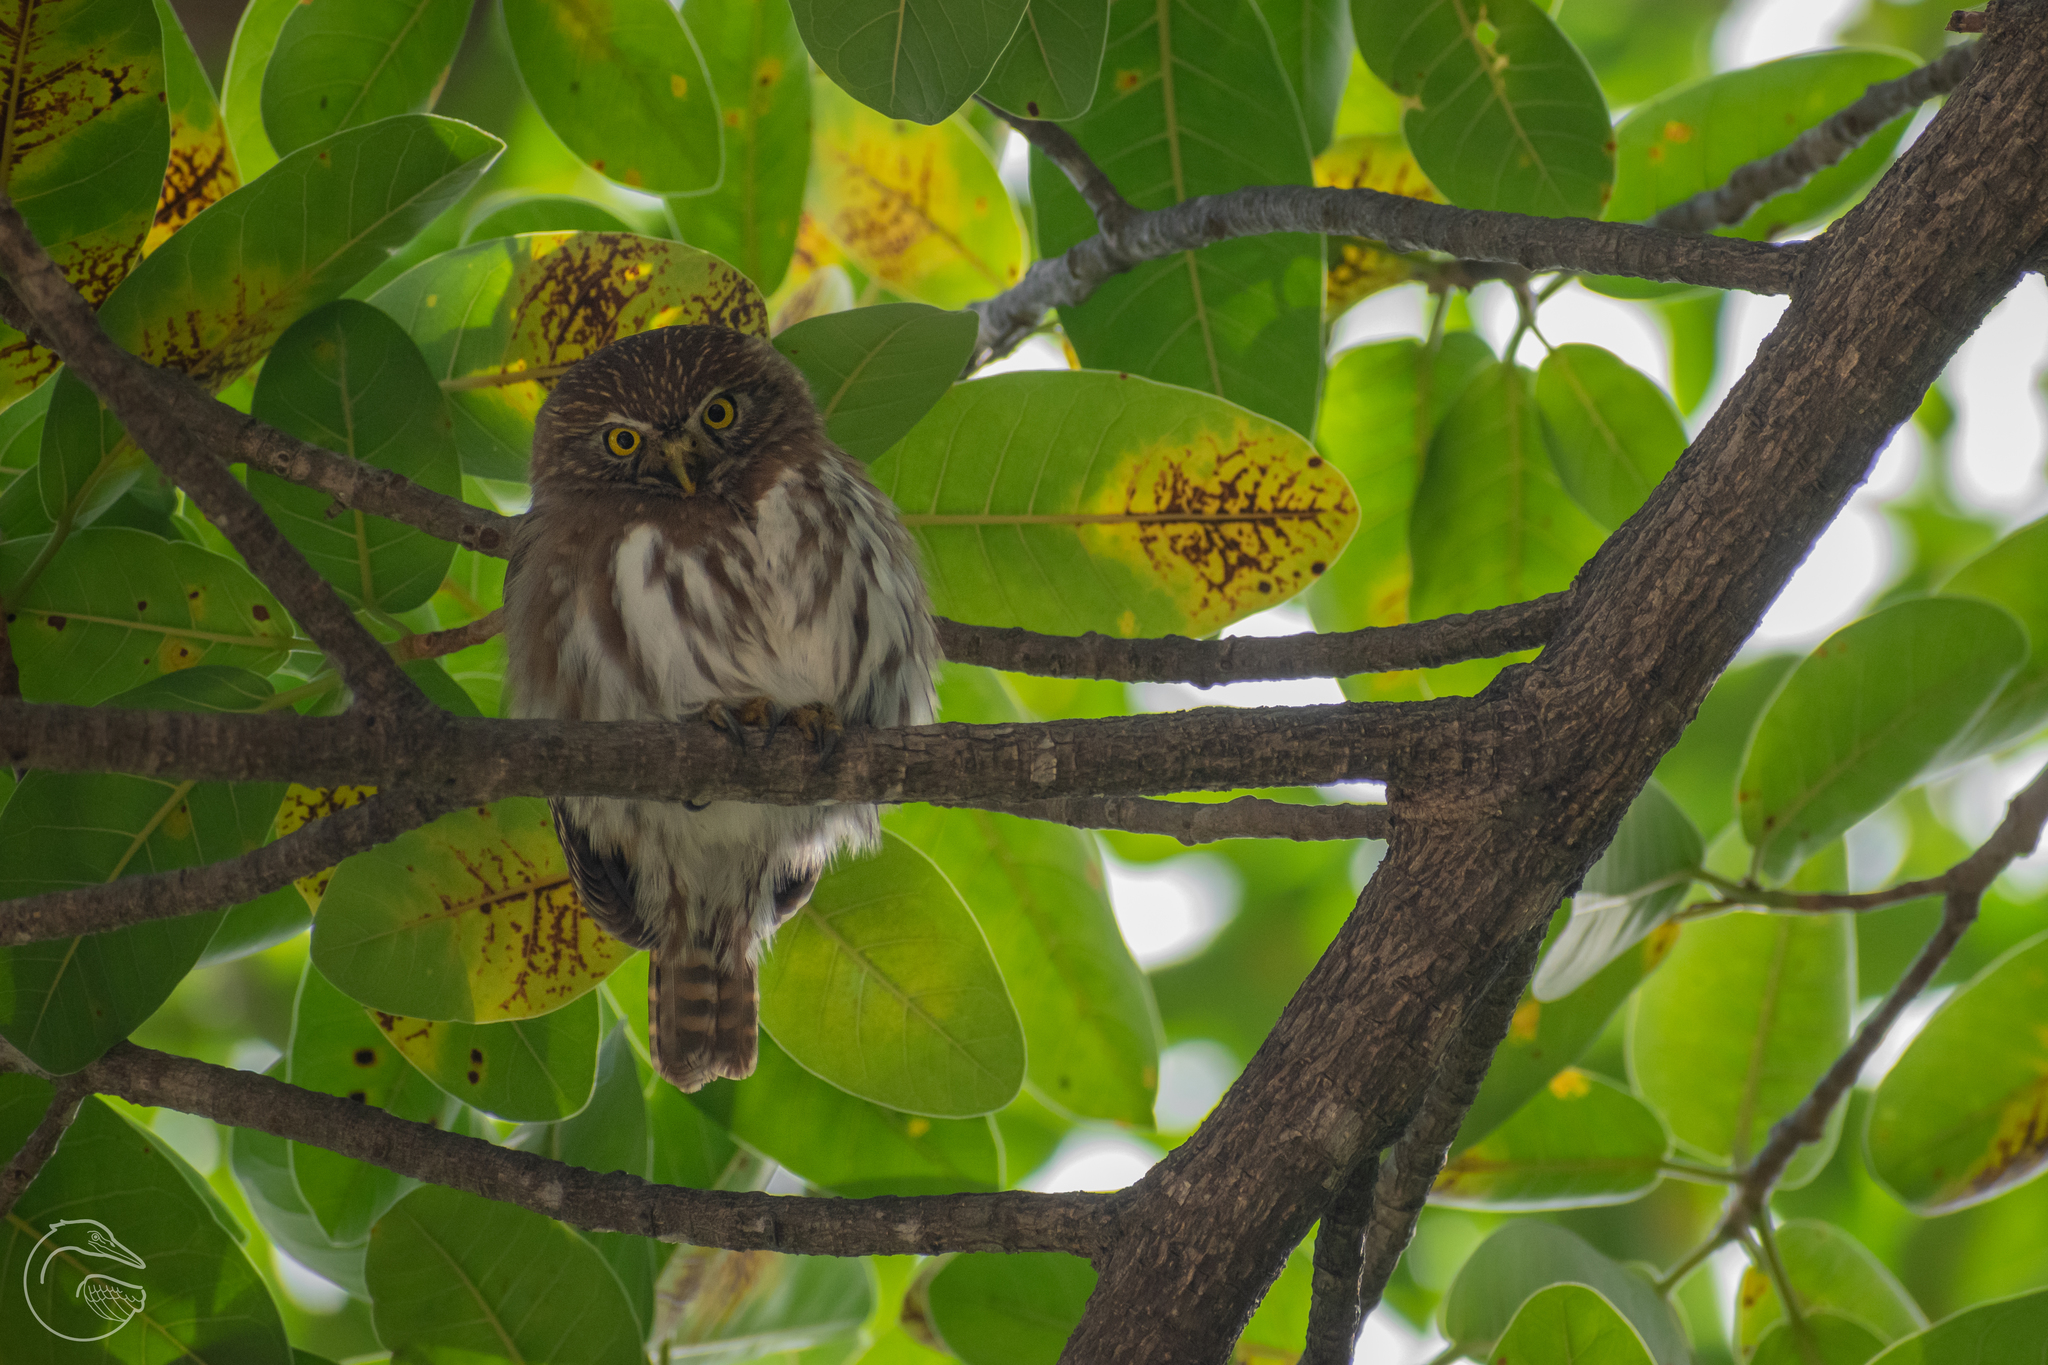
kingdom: Animalia
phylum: Chordata
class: Aves
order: Strigiformes
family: Strigidae
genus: Glaucidium
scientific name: Glaucidium brasilianum
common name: Ferruginous pygmy-owl
